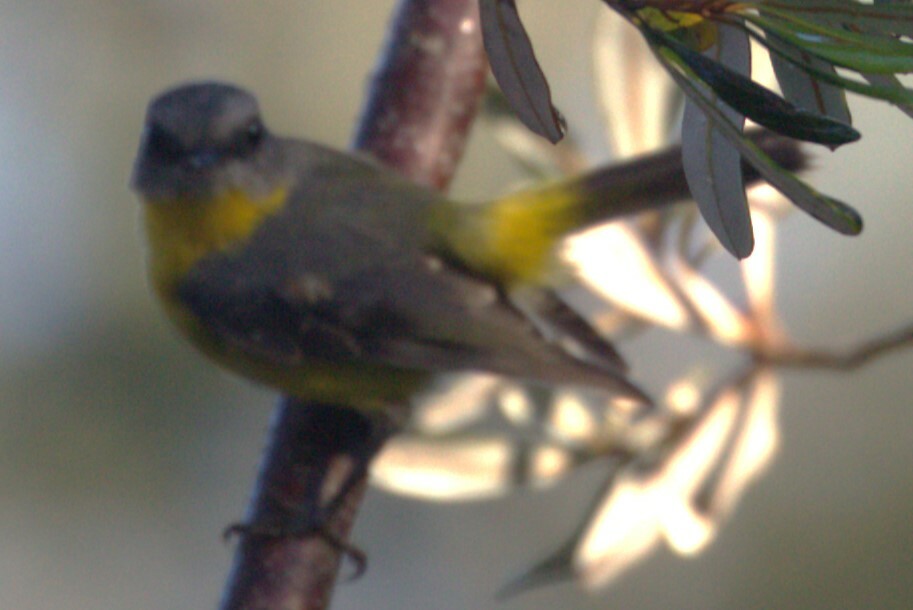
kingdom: Animalia
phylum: Chordata
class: Aves
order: Passeriformes
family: Petroicidae
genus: Eopsaltria
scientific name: Eopsaltria australis
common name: Eastern yellow robin
